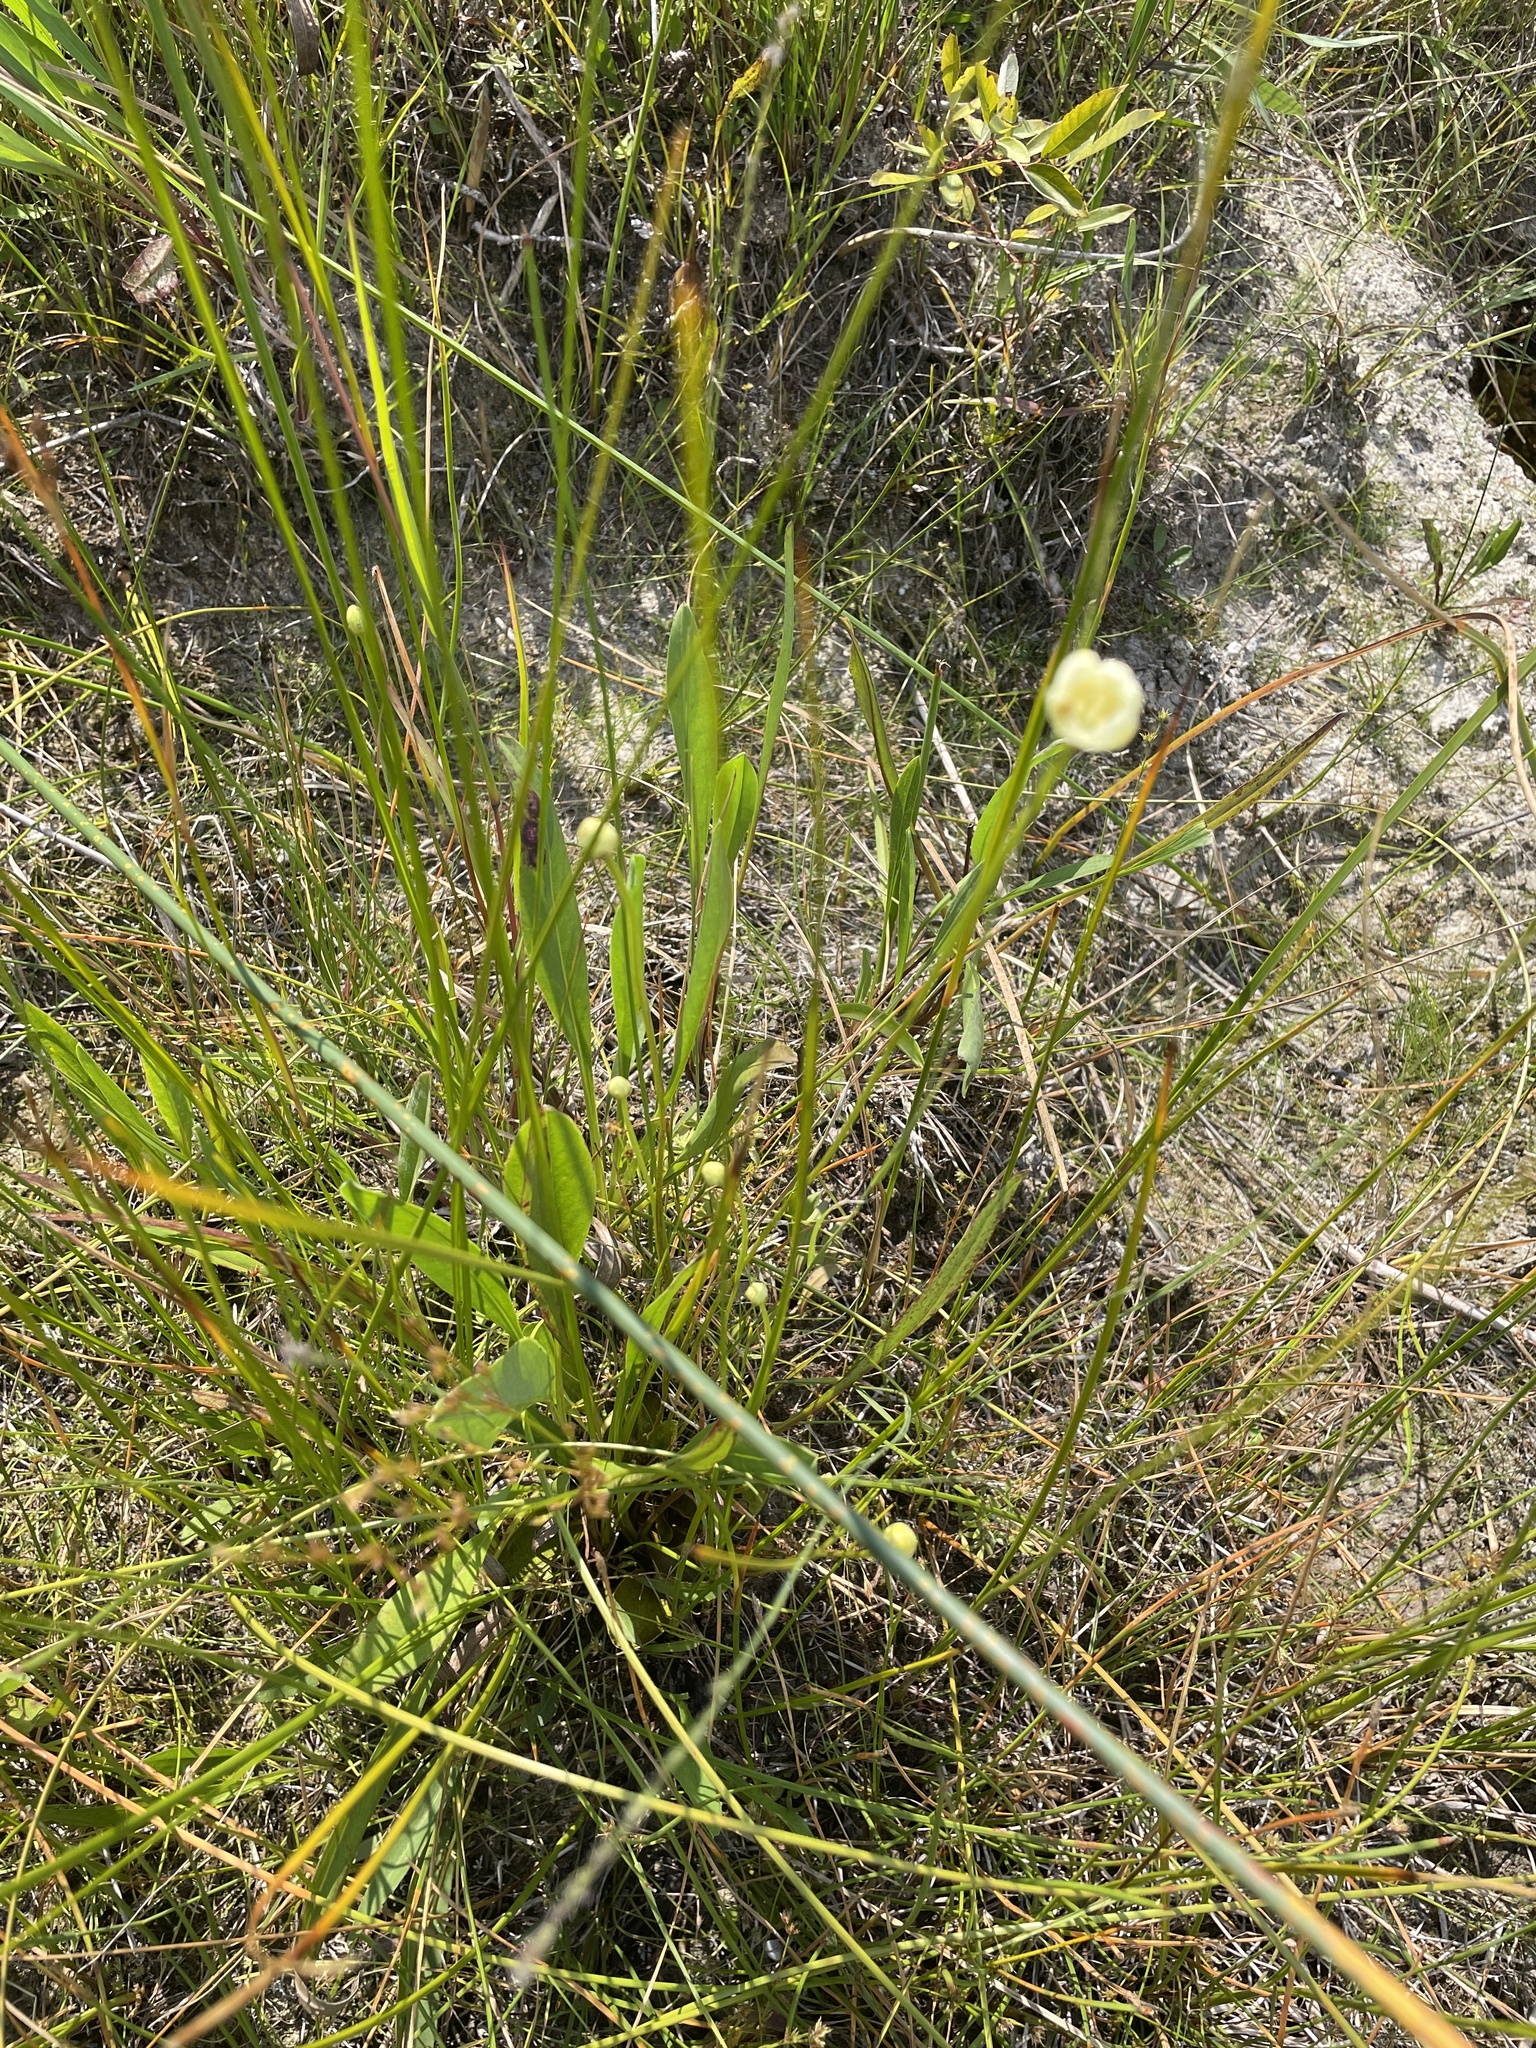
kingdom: Plantae
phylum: Tracheophyta
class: Magnoliopsida
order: Celastrales
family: Parnassiaceae
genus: Parnassia
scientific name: Parnassia glauca
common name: American grass-of-parnassus
